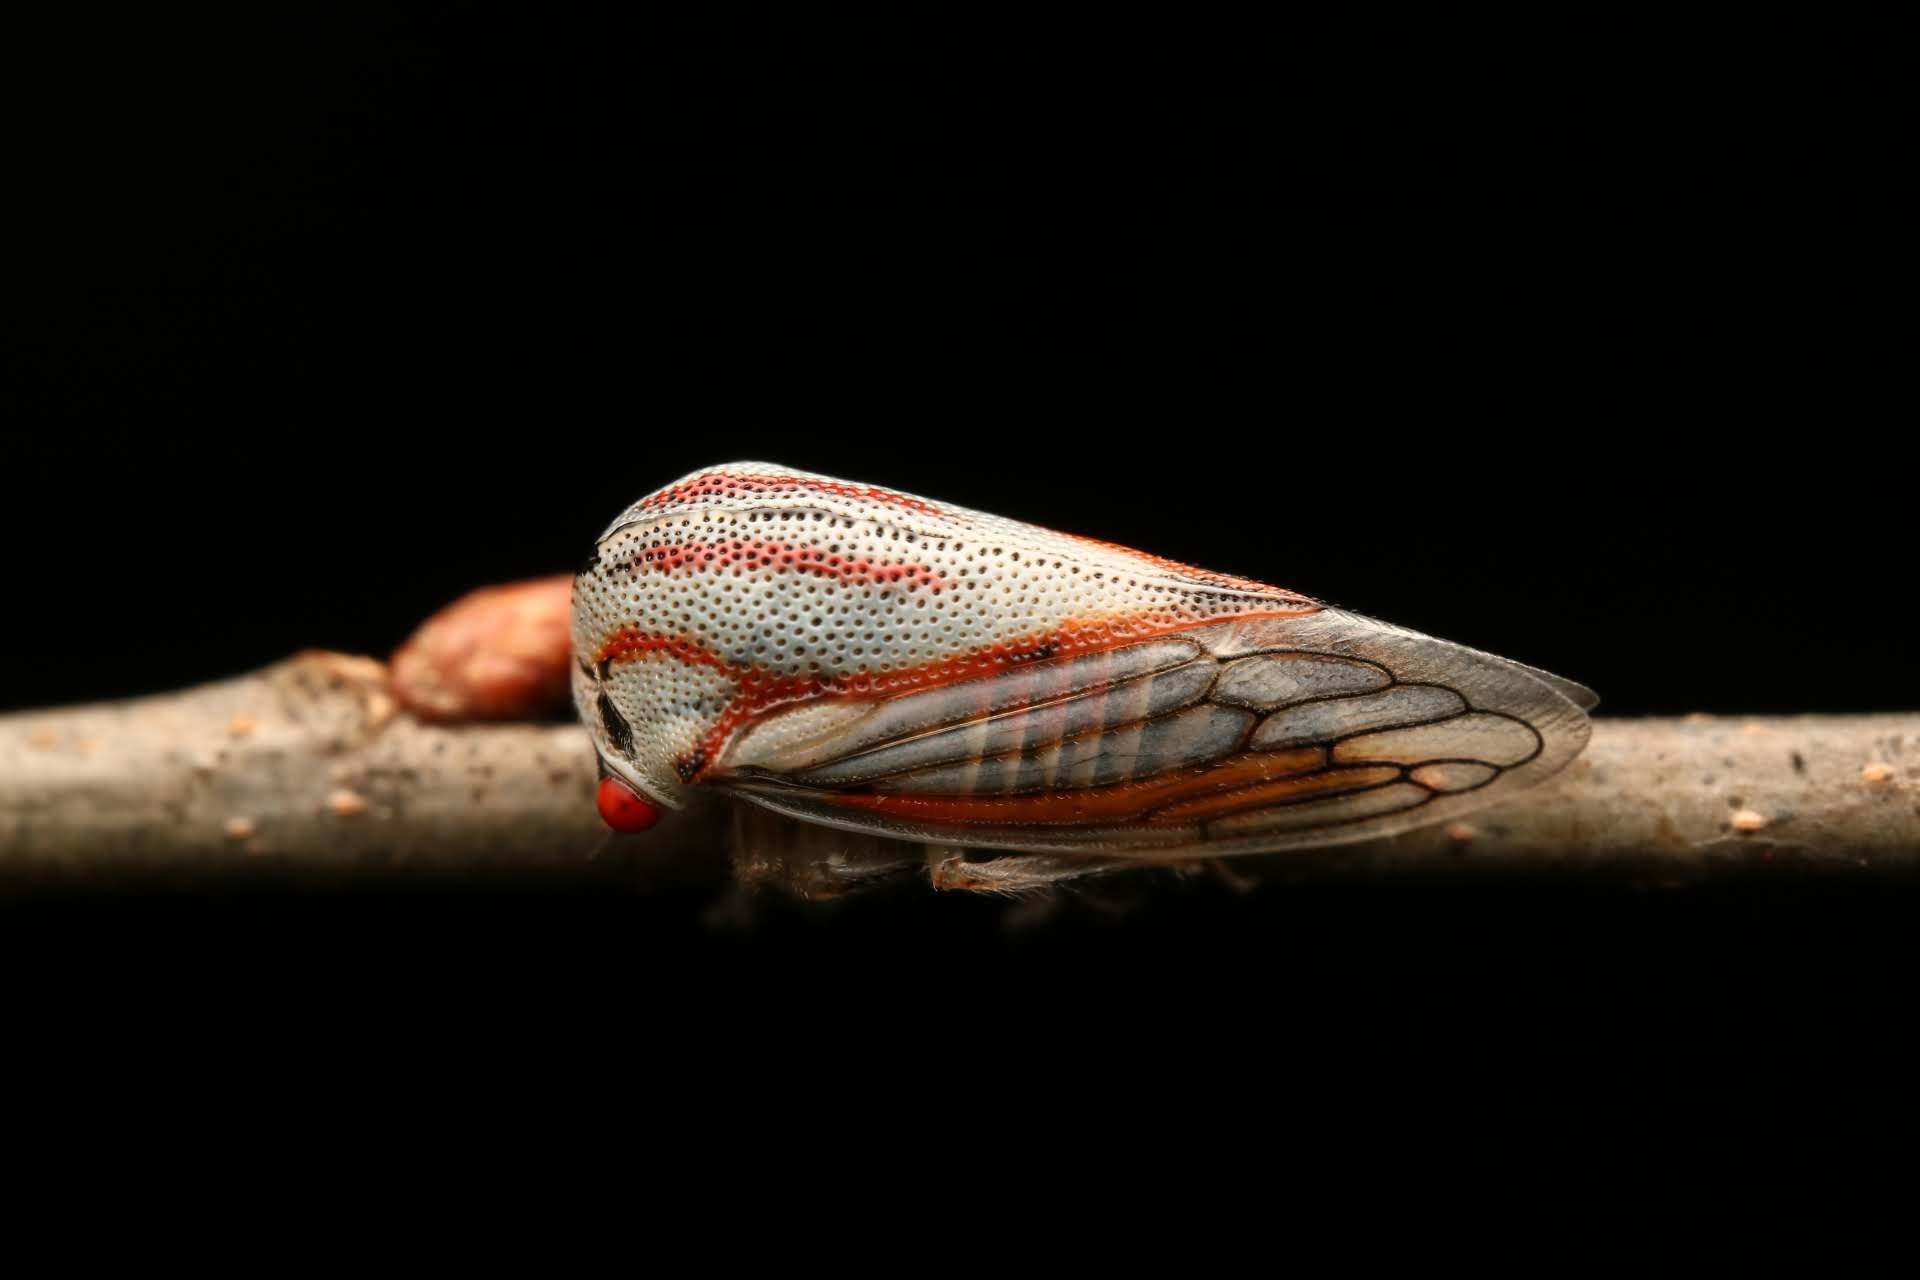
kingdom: Animalia
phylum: Arthropoda
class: Insecta
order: Hemiptera
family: Membracidae
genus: Platycotis
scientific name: Platycotis vittatus
